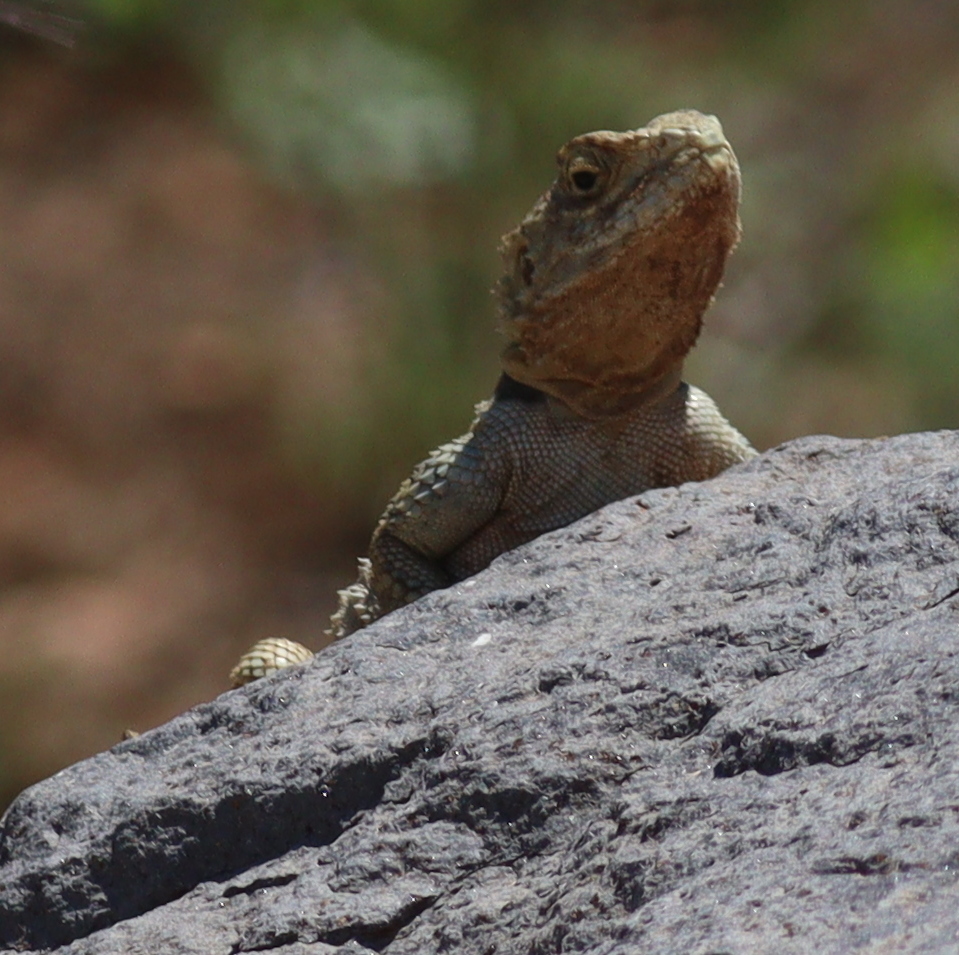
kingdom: Animalia
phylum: Chordata
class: Squamata
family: Agamidae
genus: Stellagama
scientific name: Stellagama stellio
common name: Starred agama
